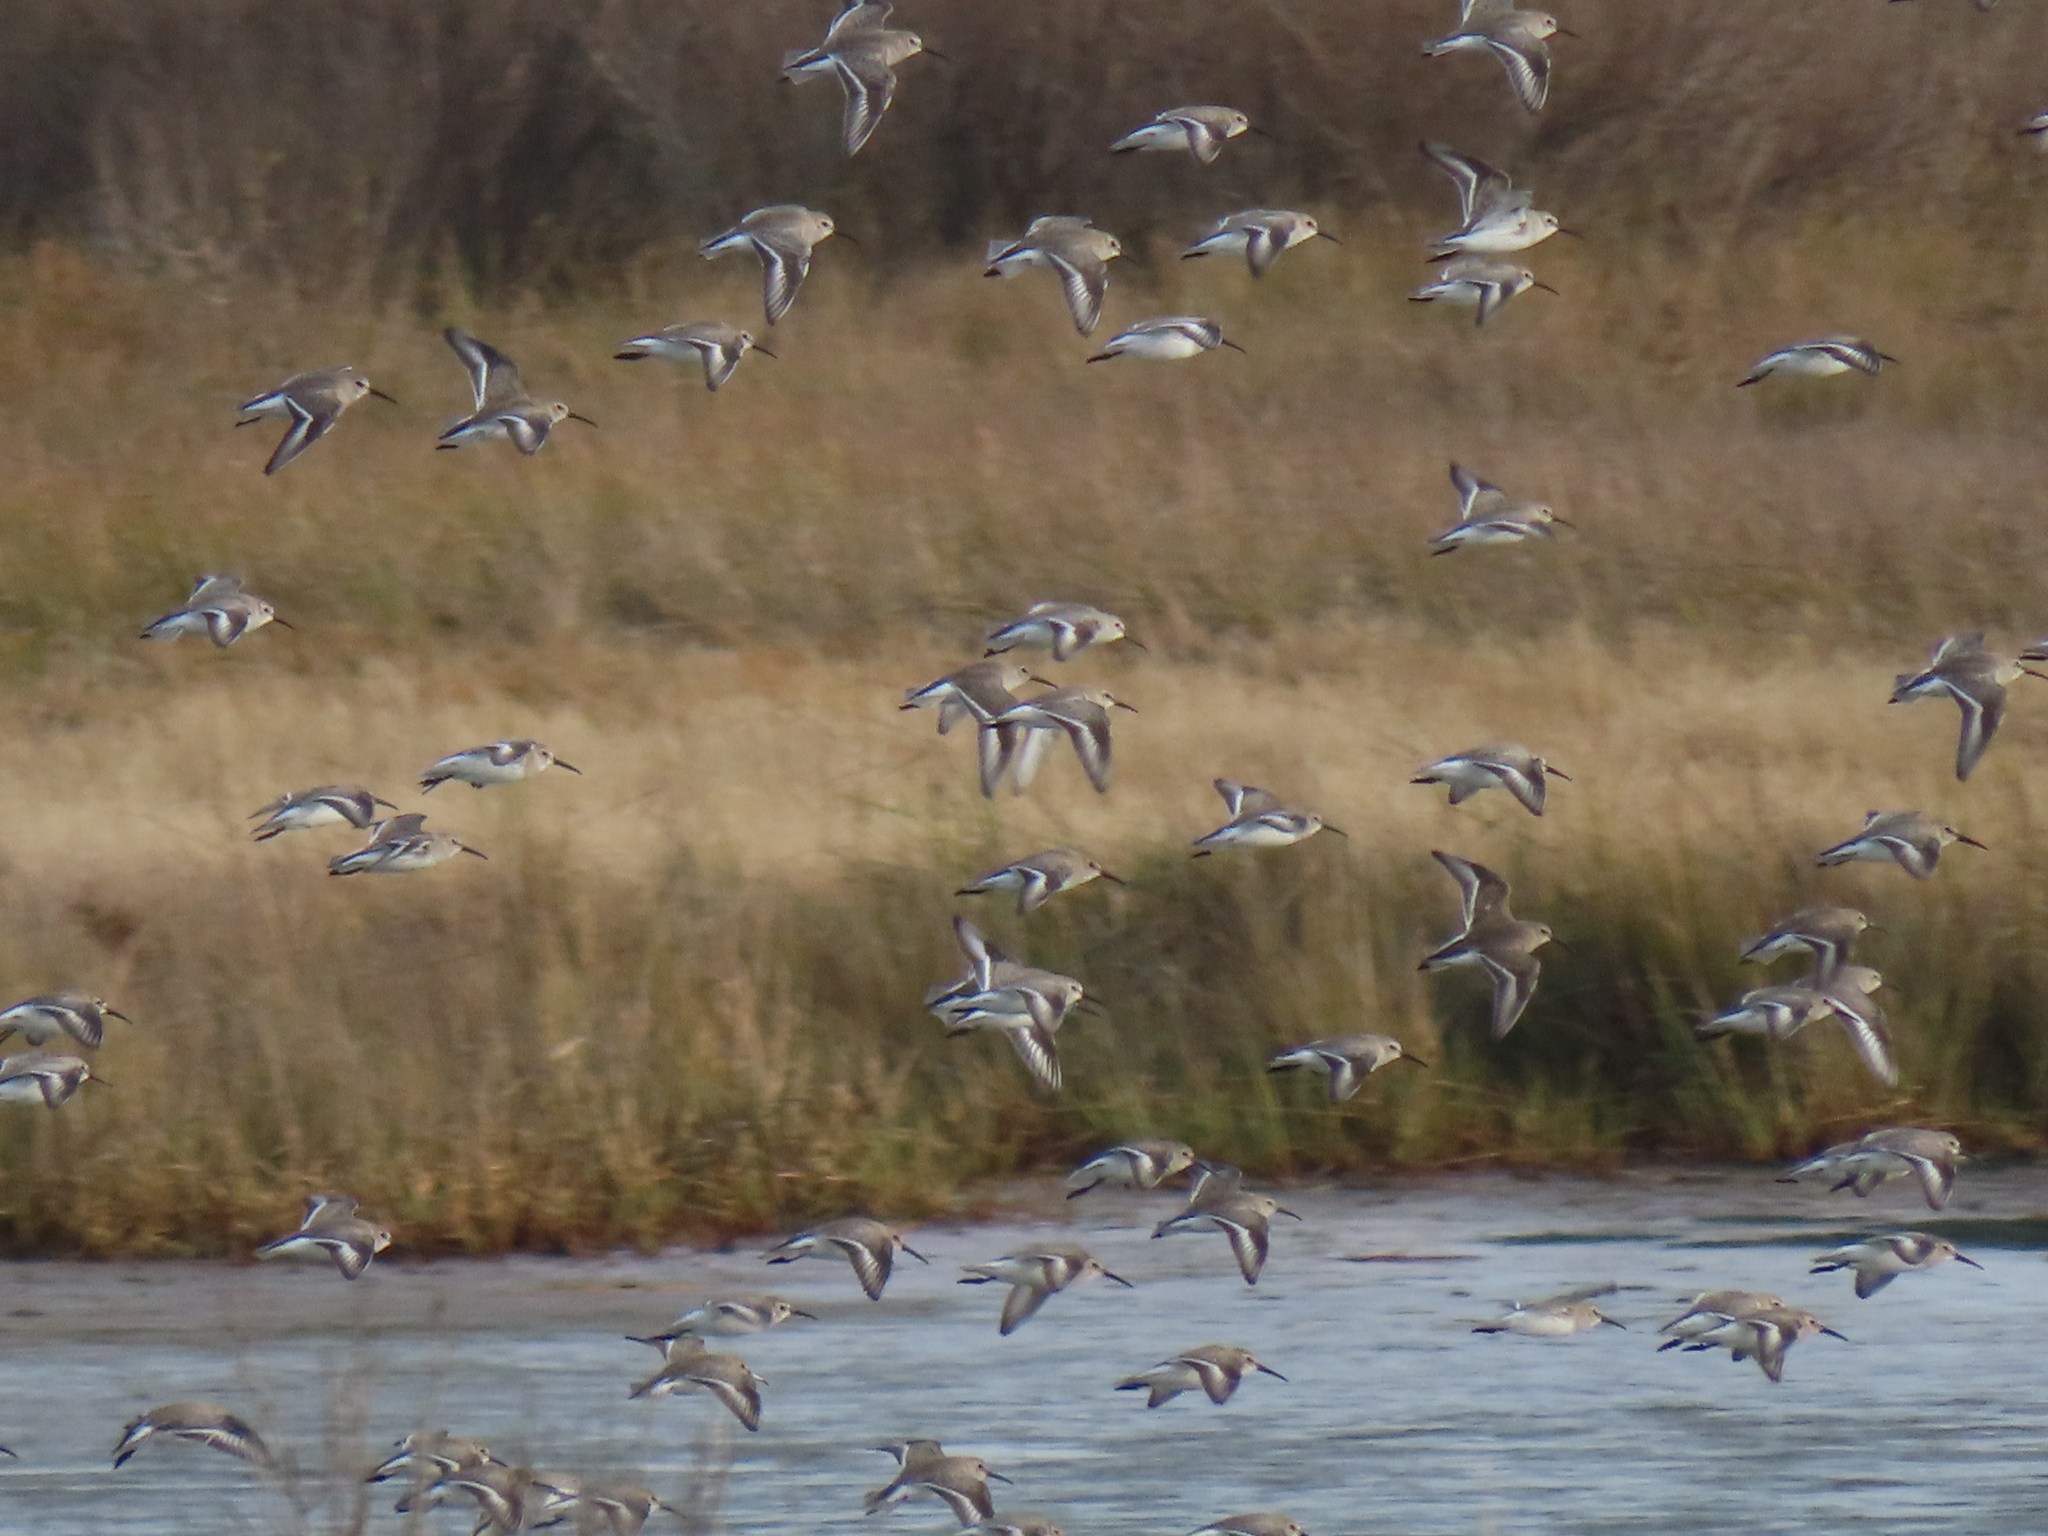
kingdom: Animalia
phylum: Chordata
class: Aves
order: Charadriiformes
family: Scolopacidae
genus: Calidris
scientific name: Calidris alpina
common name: Dunlin
